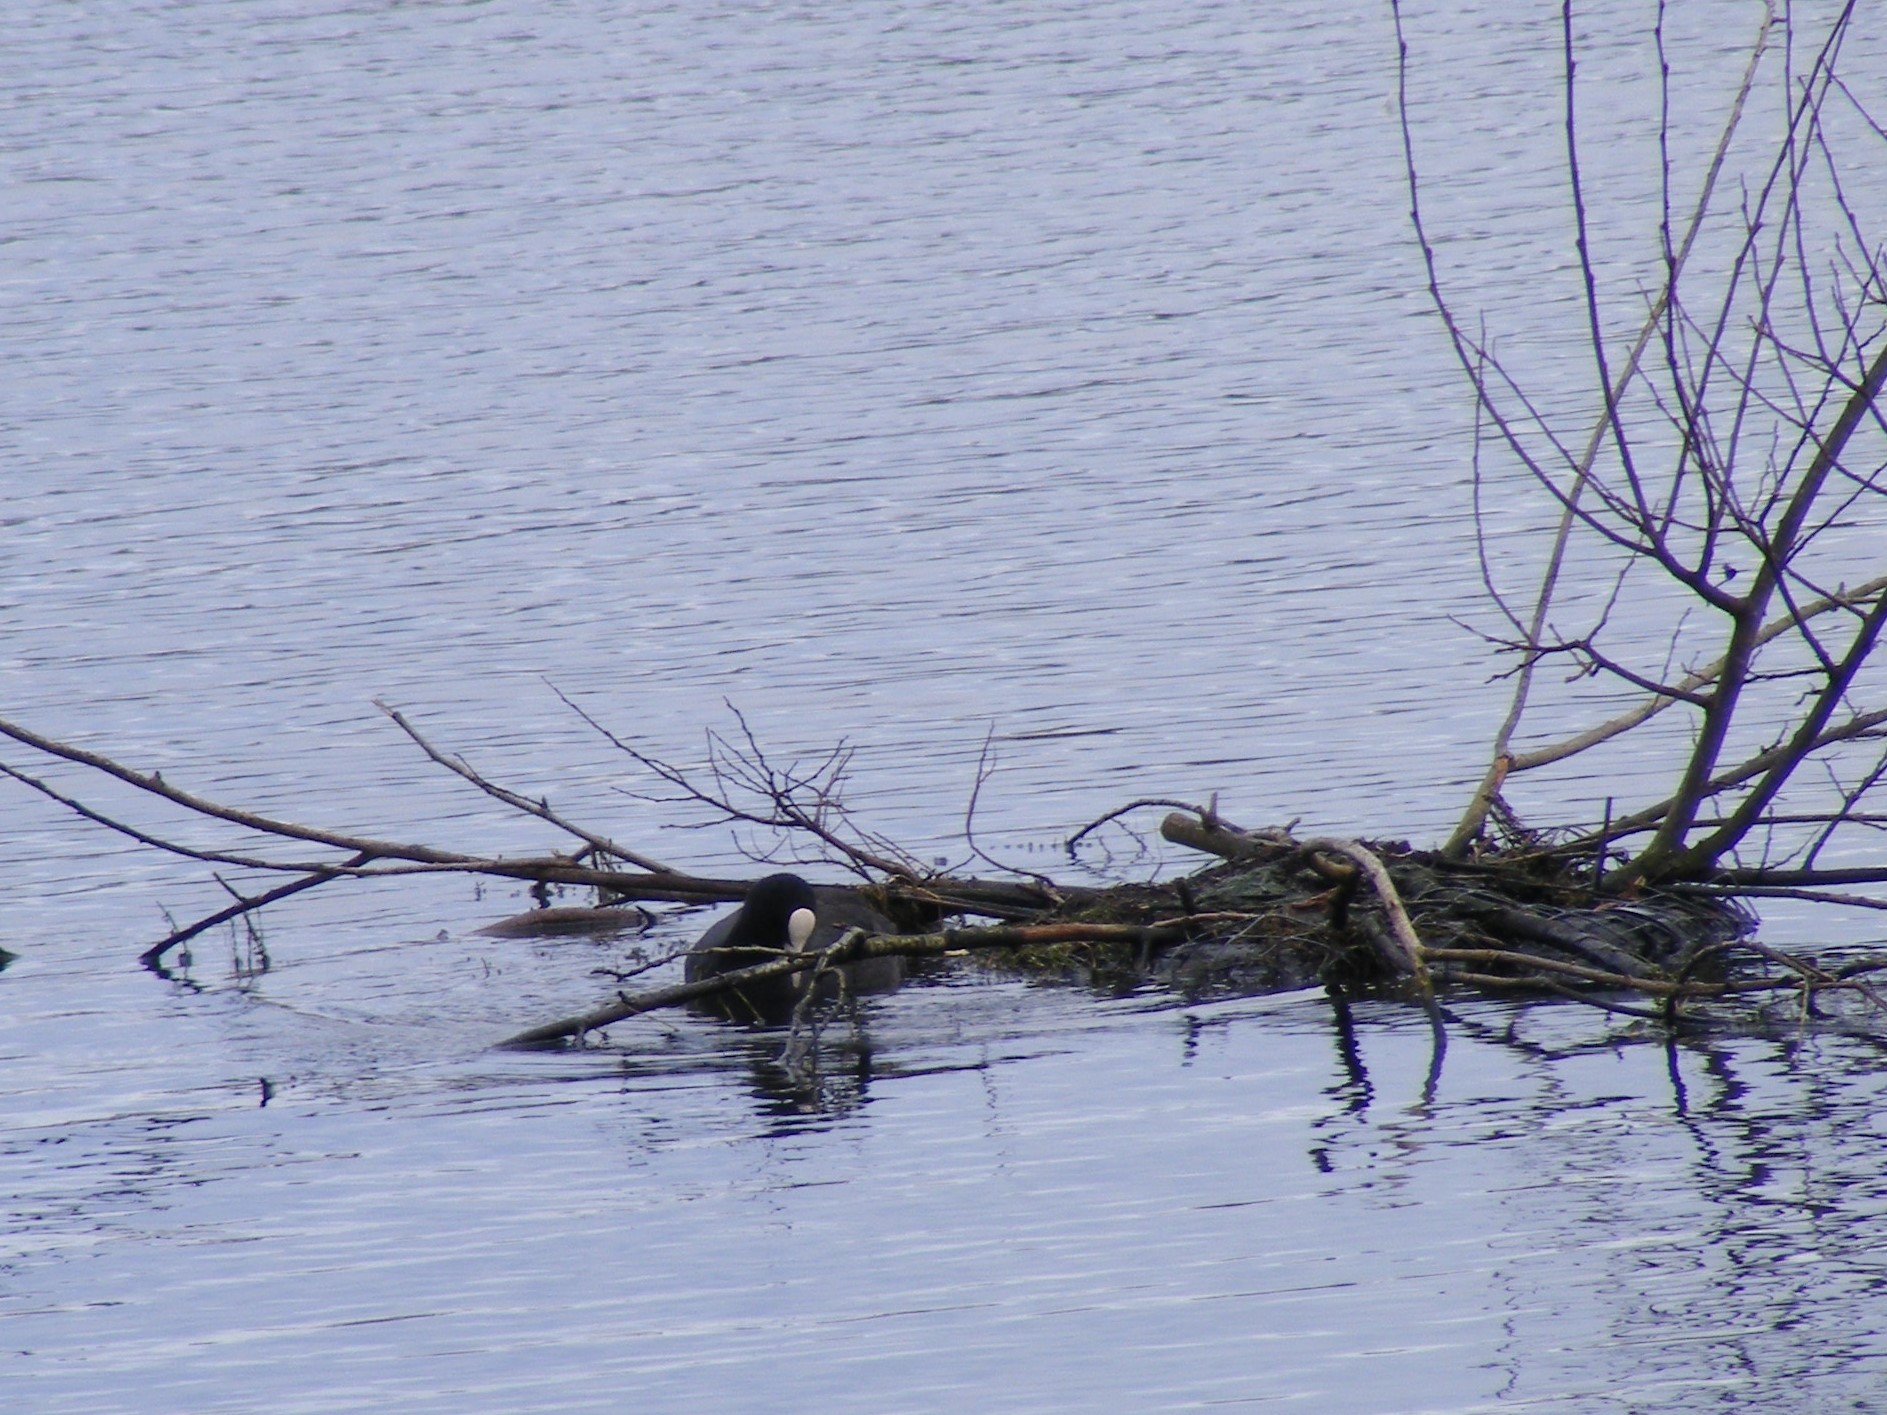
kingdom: Animalia
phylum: Chordata
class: Aves
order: Gruiformes
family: Rallidae
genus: Fulica
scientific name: Fulica atra
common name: Eurasian coot
